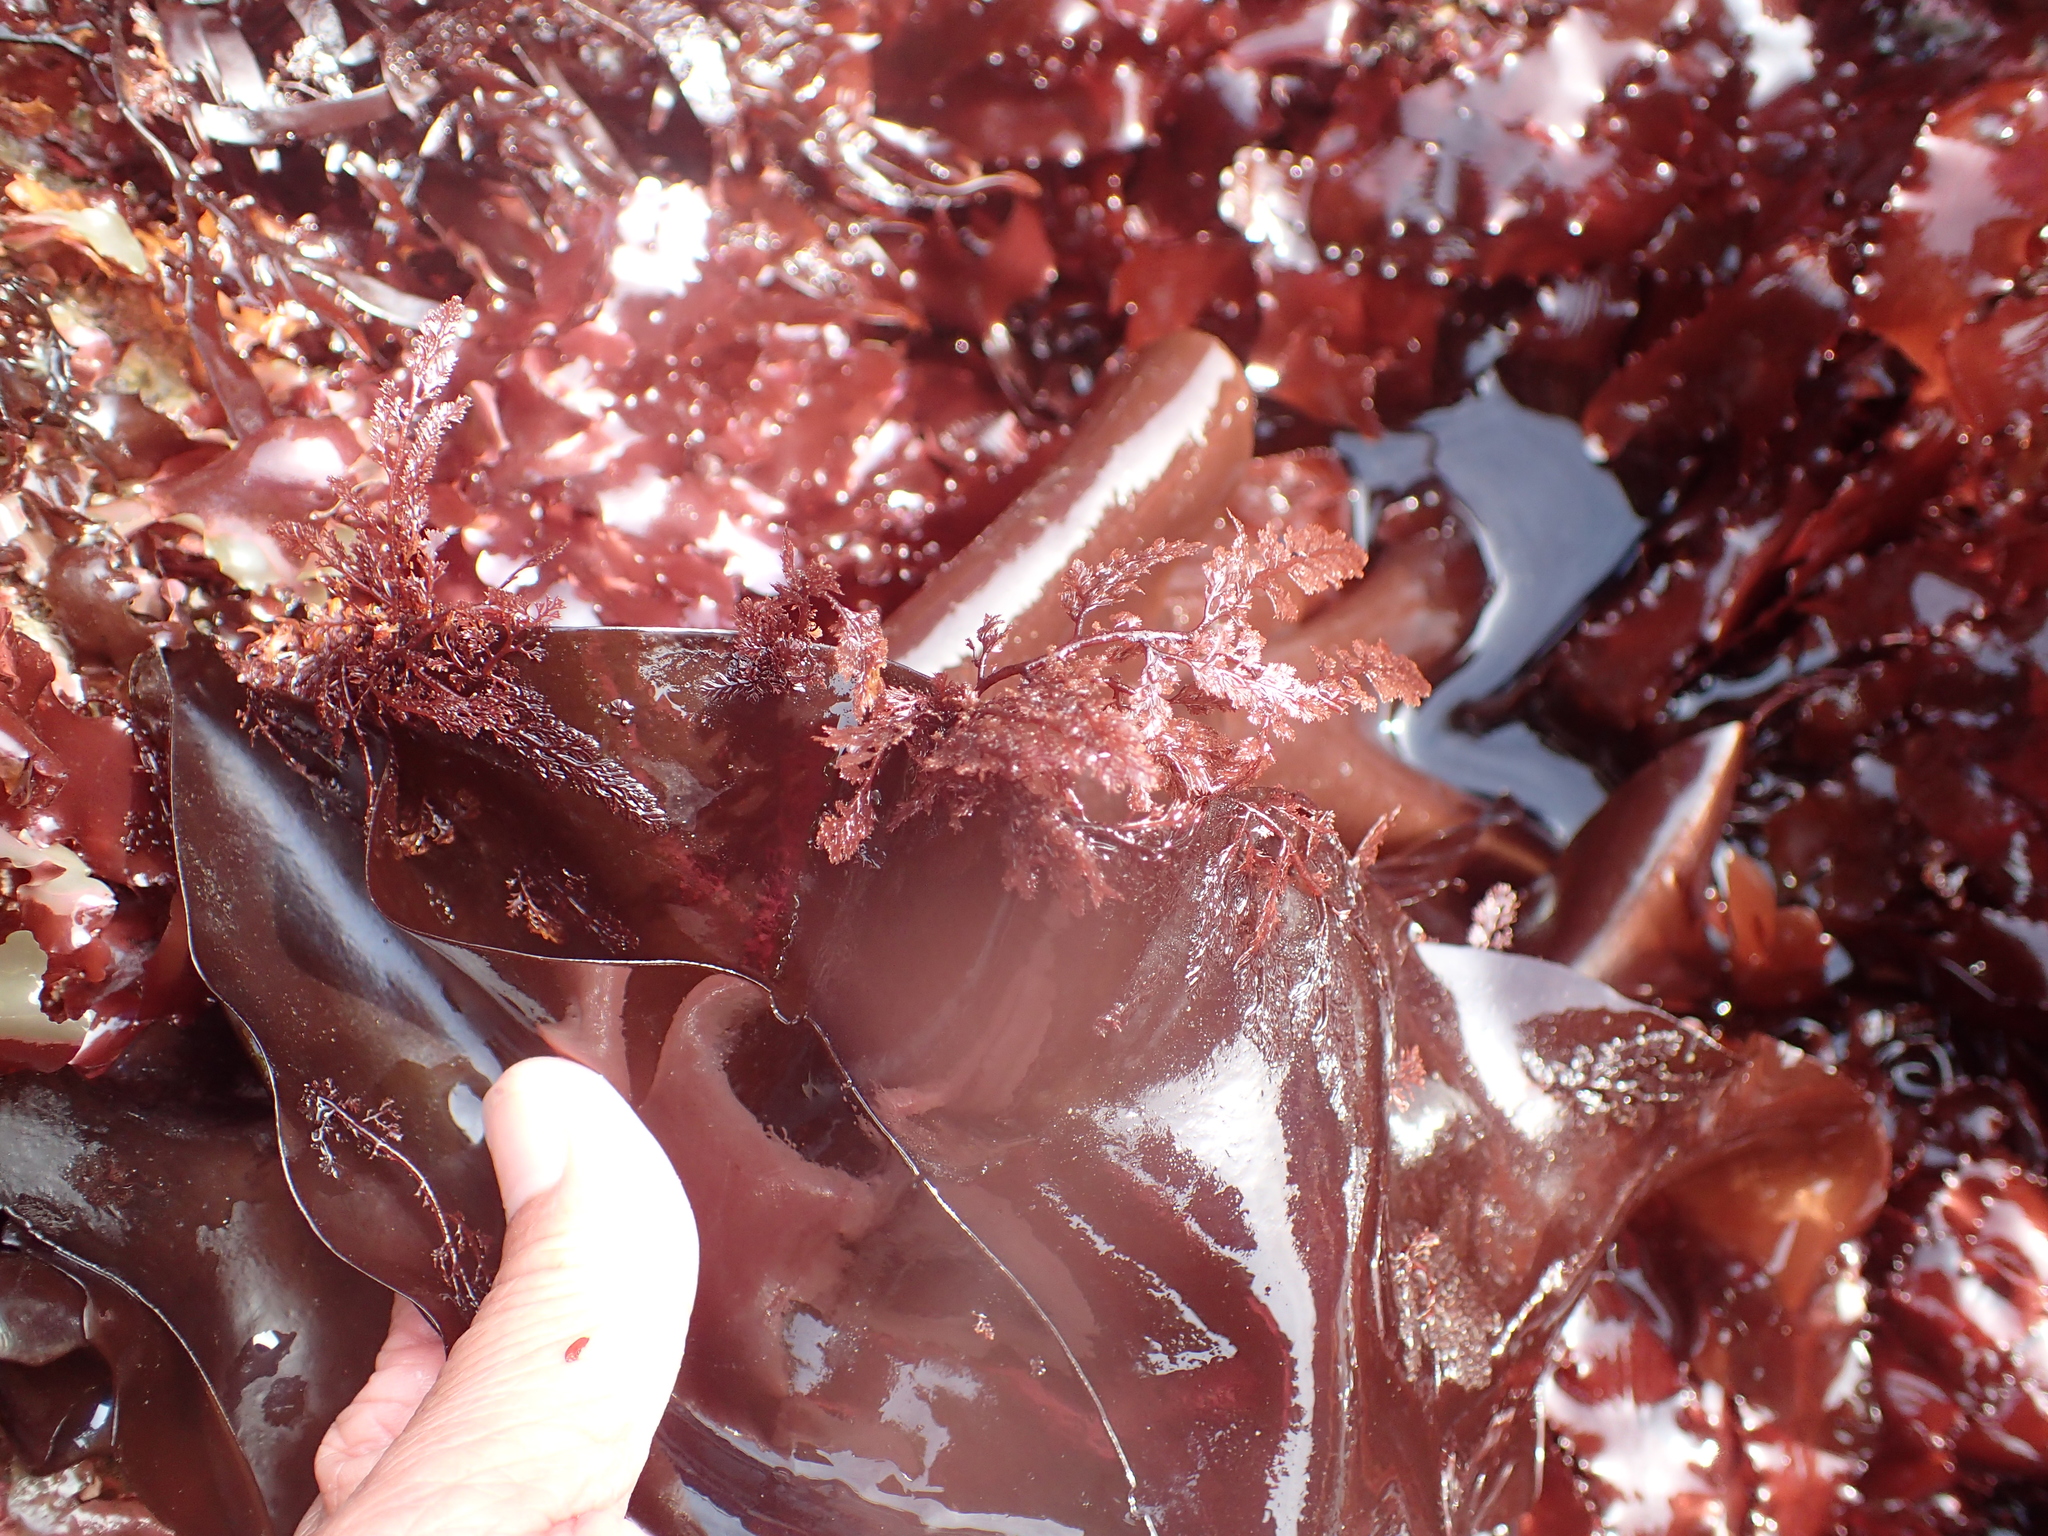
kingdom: Plantae
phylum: Rhodophyta
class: Florideophyceae
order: Ceramiales
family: Ceramiaceae
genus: Microcladia
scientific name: Microcladia coulteri
